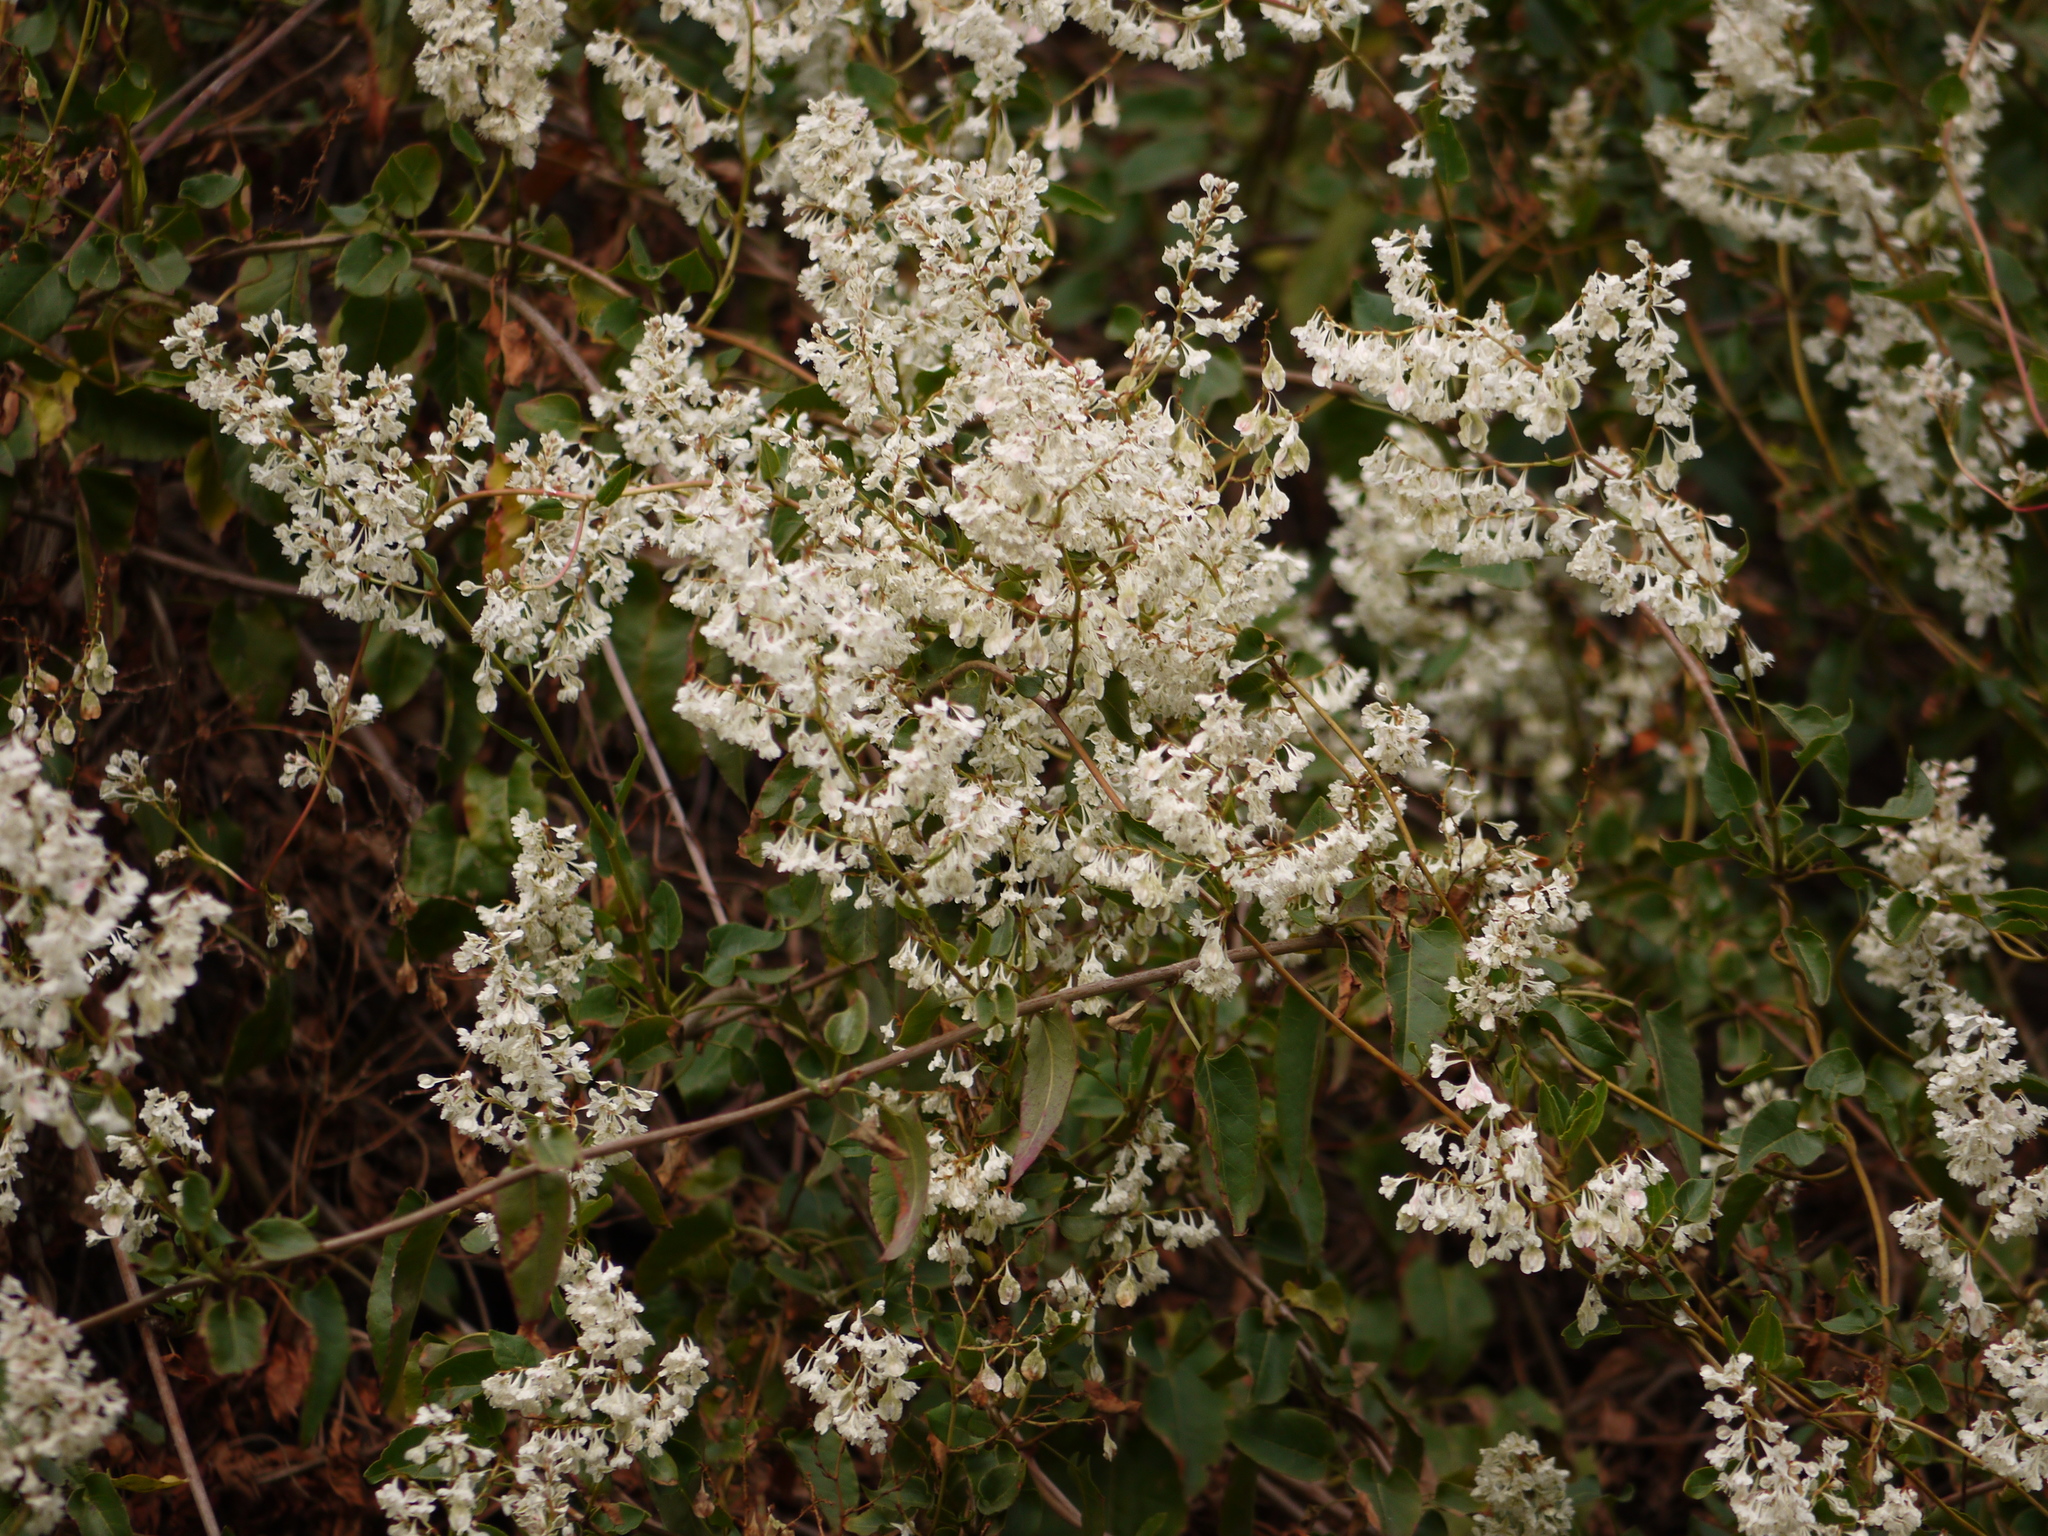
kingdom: Plantae
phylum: Tracheophyta
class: Magnoliopsida
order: Caryophyllales
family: Polygonaceae
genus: Fallopia
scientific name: Fallopia baldschuanica
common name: Russian-vine
